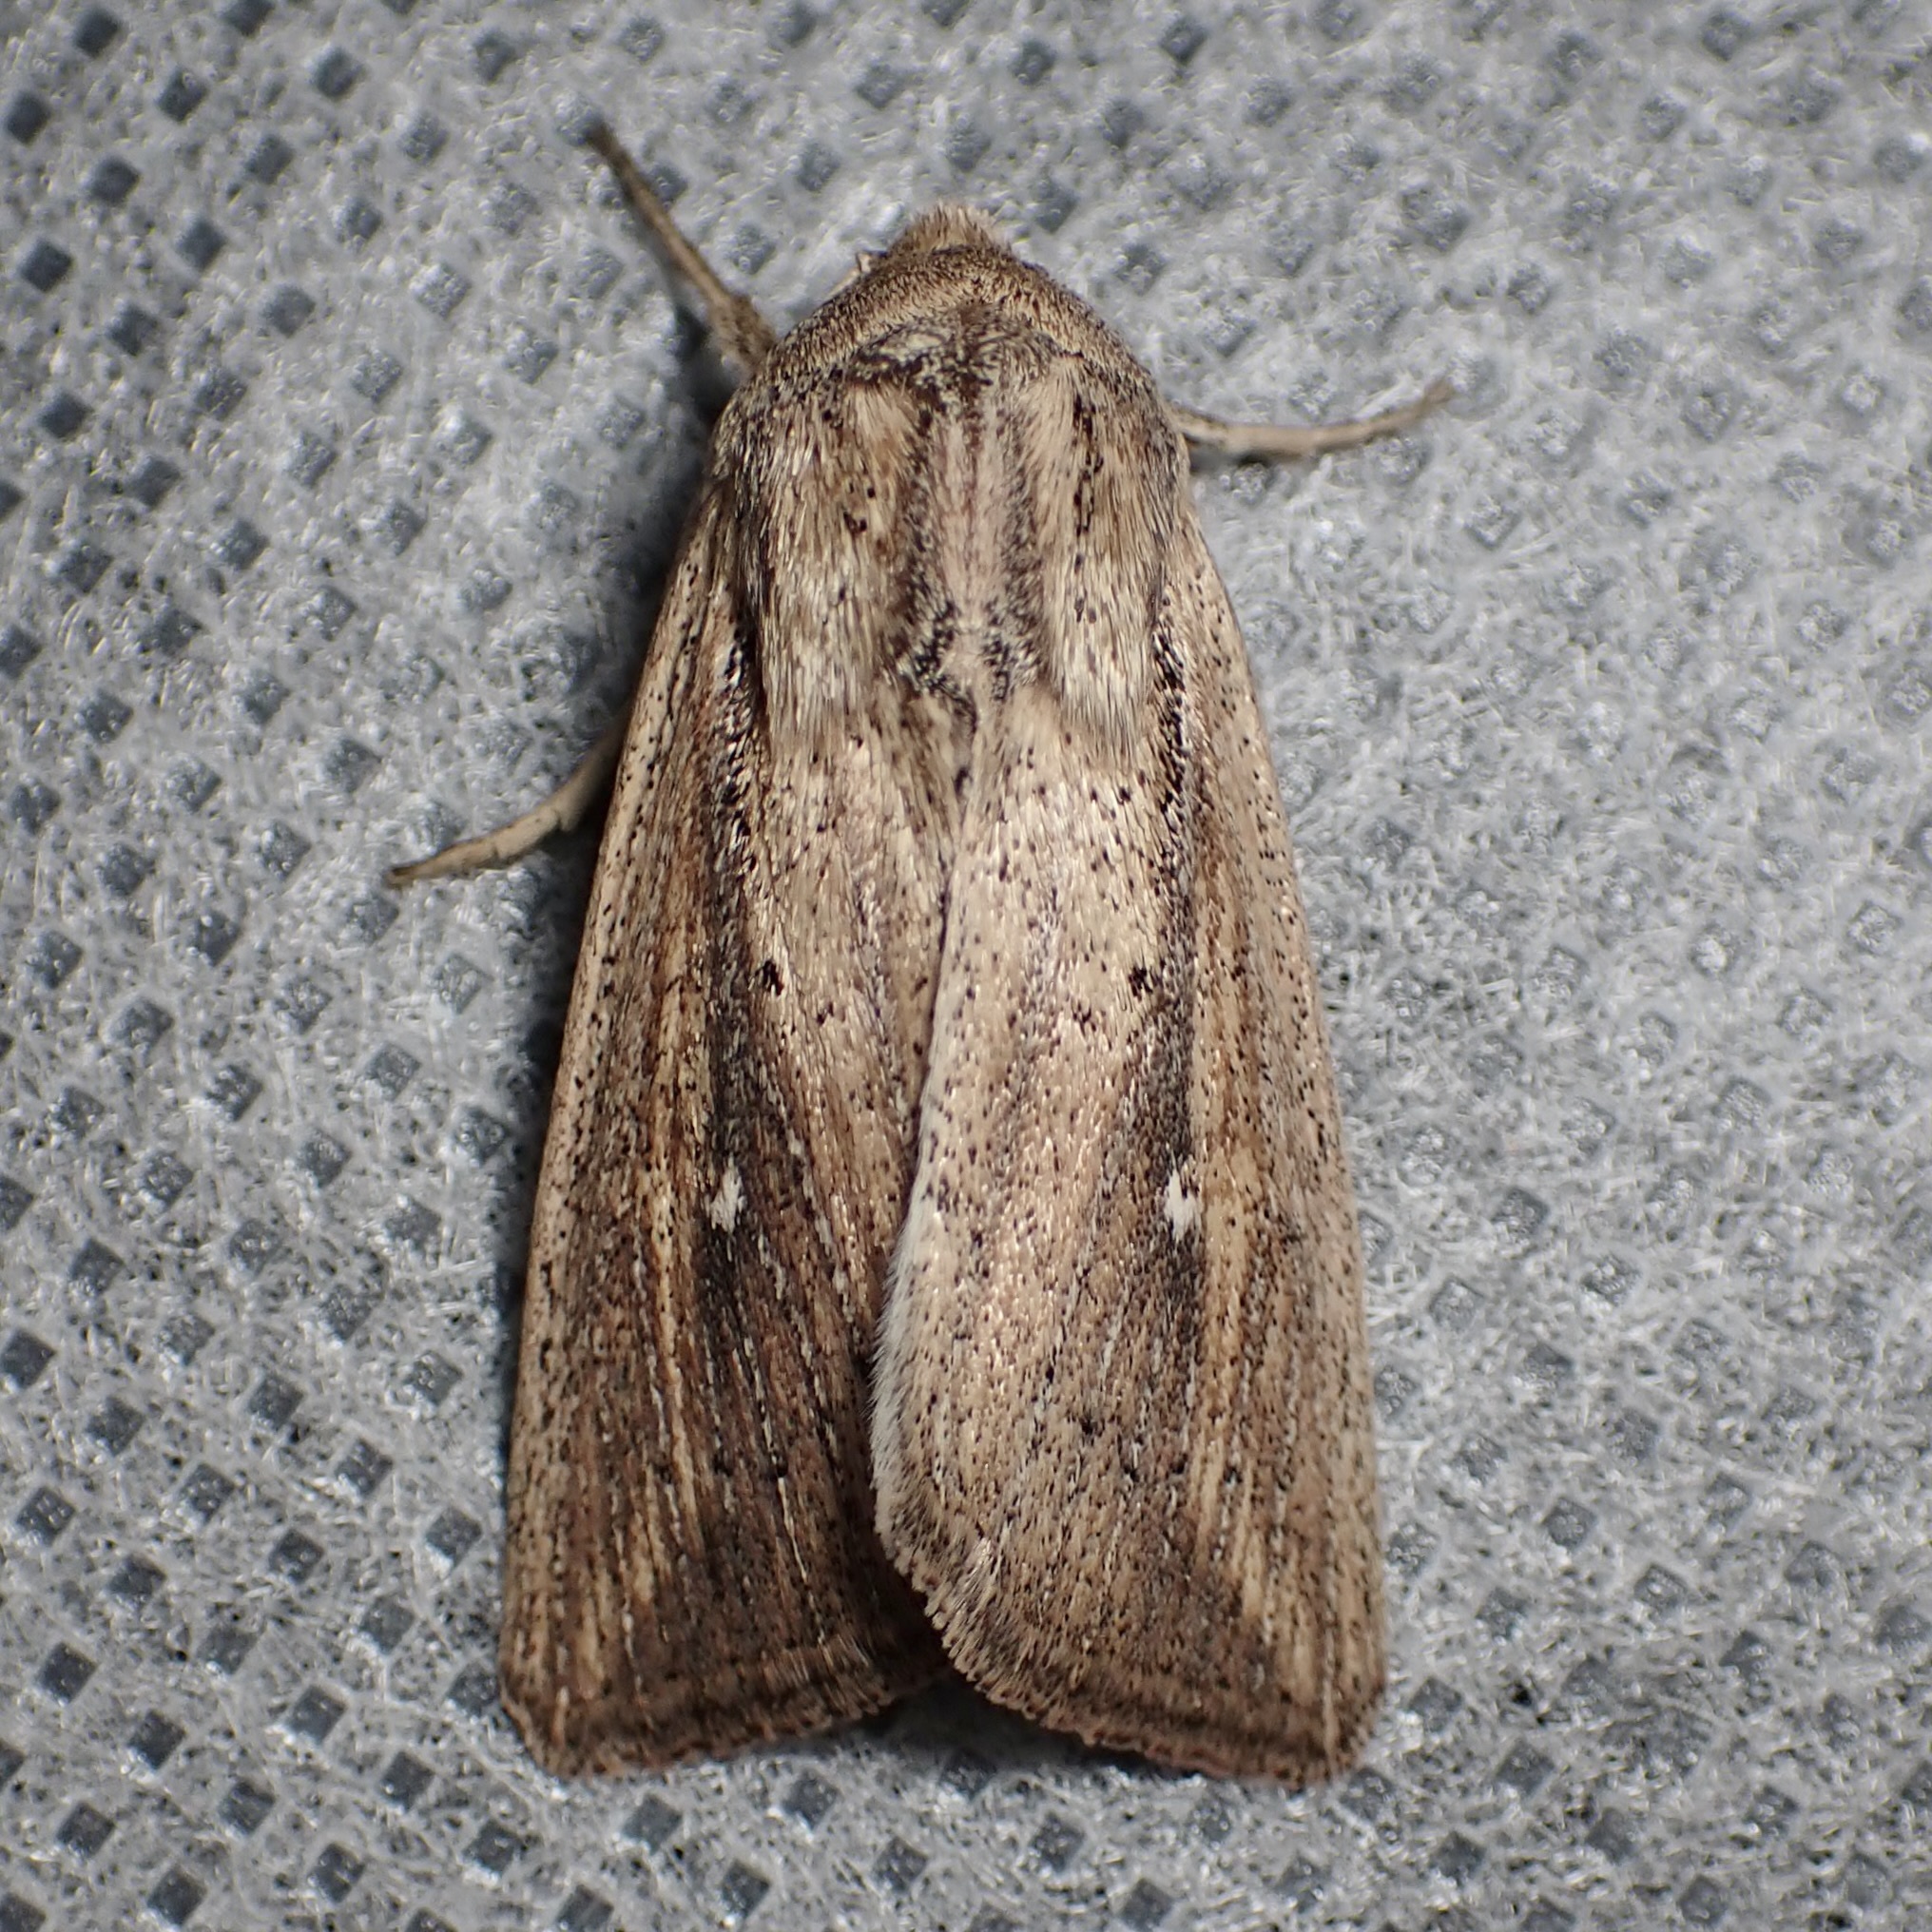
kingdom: Animalia
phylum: Arthropoda
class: Insecta
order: Lepidoptera
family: Noctuidae
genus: Leucania
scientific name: Leucania incognita
